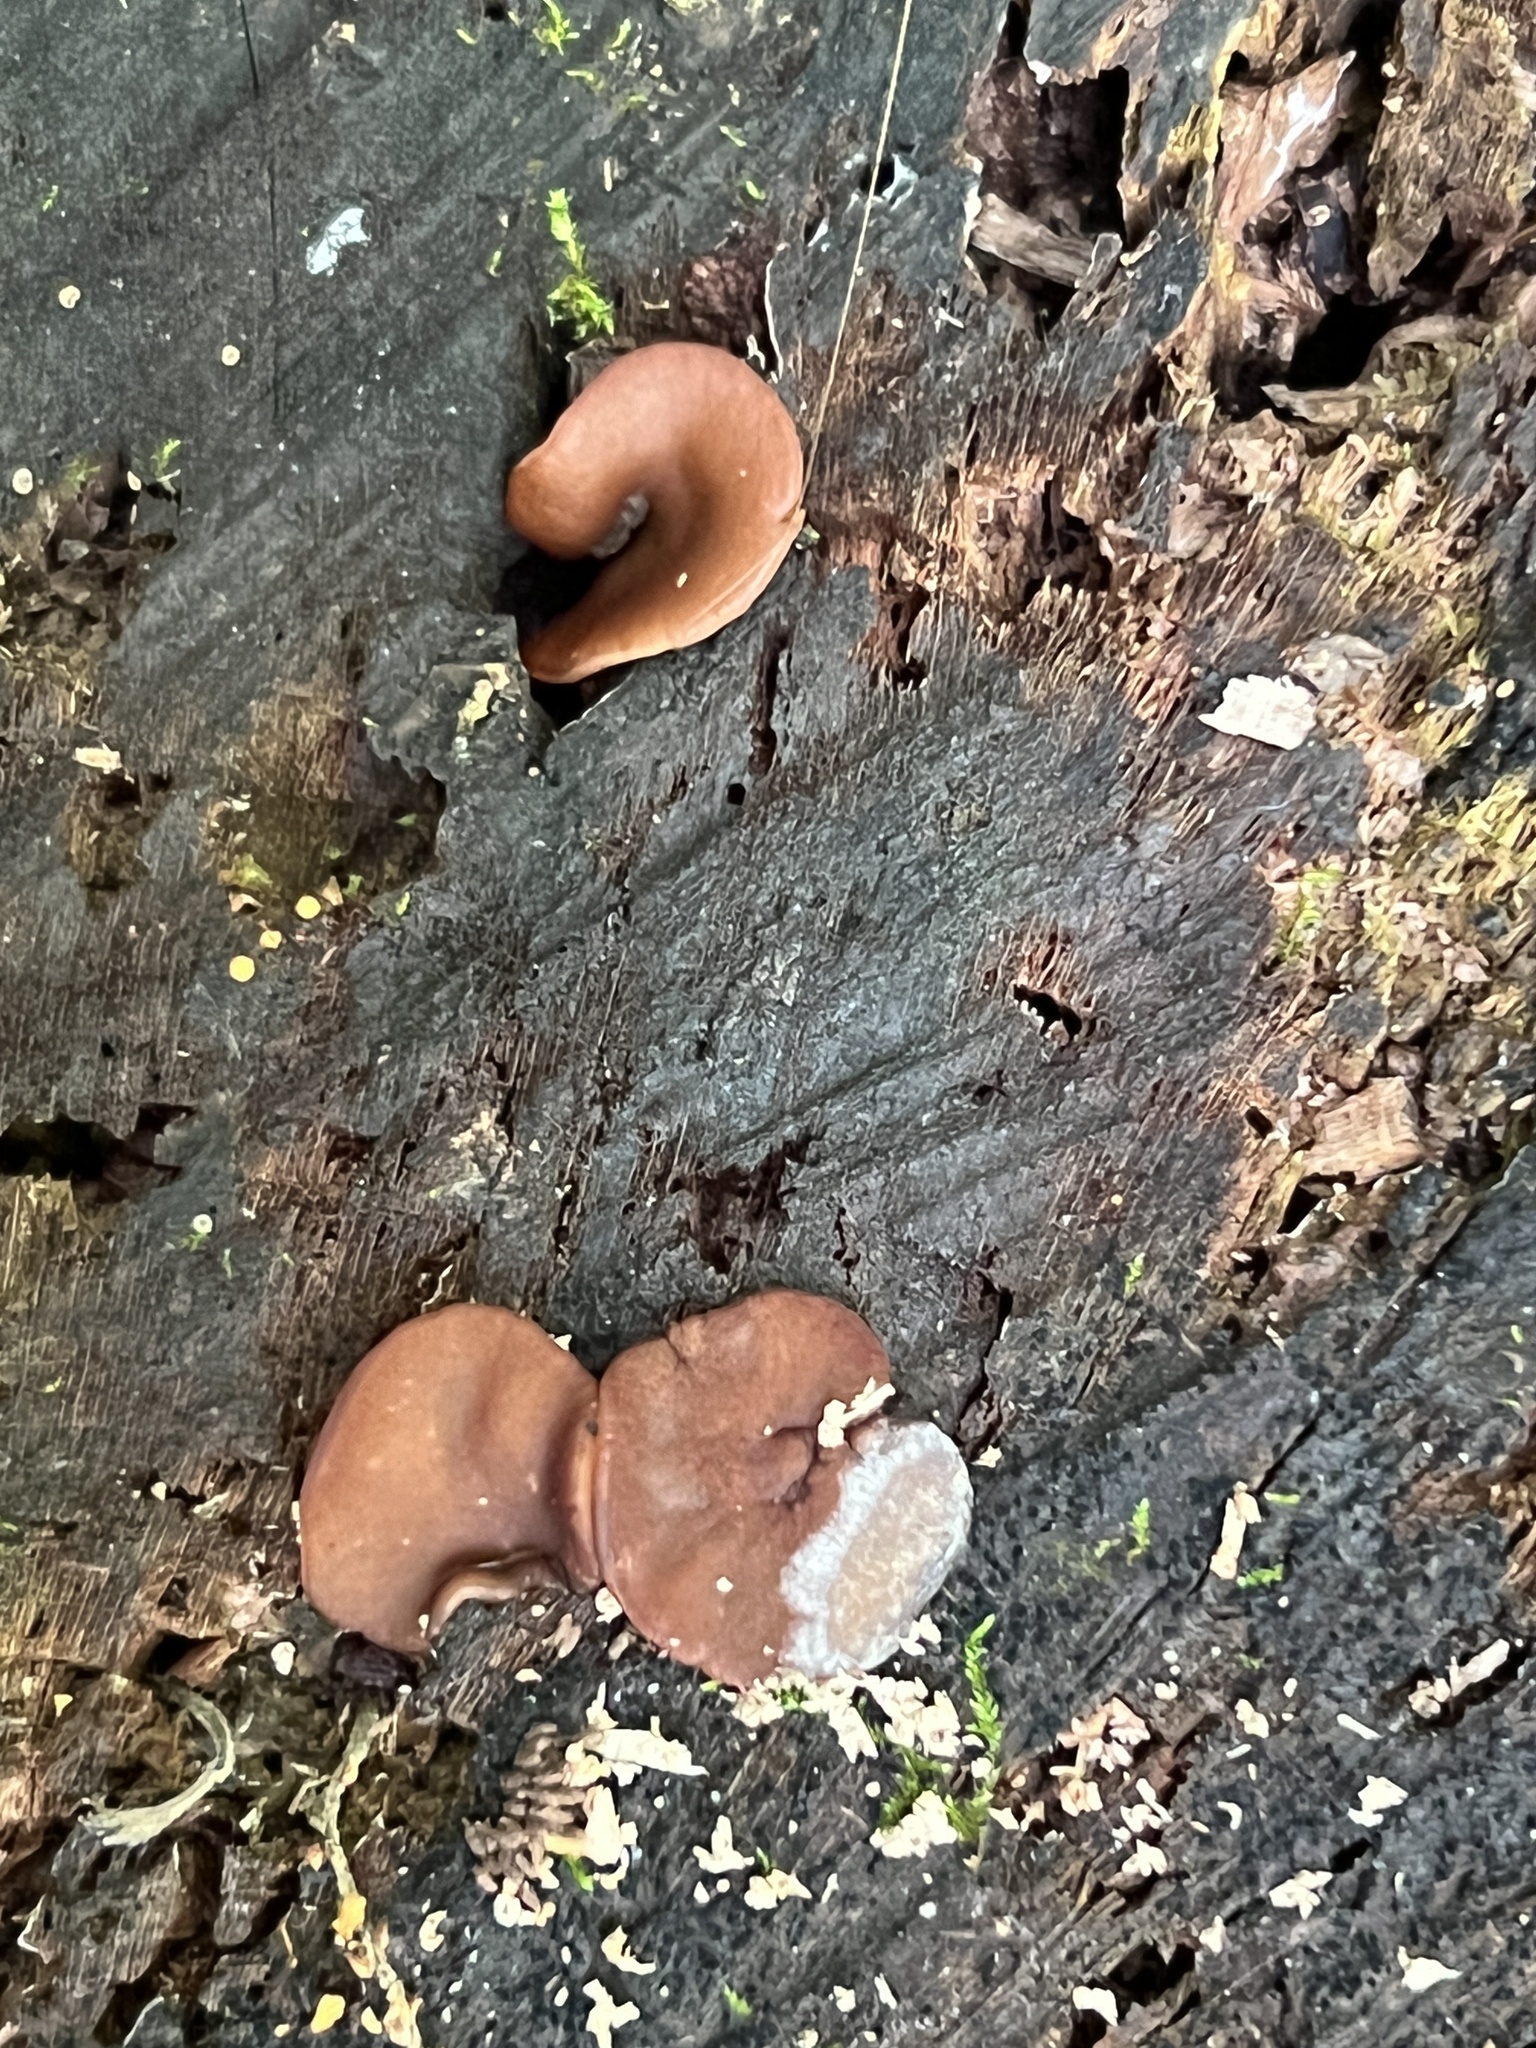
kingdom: Fungi
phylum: Ascomycota
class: Pezizomycetes
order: Pezizales
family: Pezizaceae
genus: Pachyella
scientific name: Pachyella clypeata
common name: Copper penny fungus
